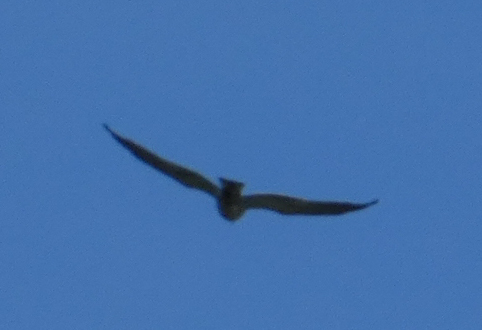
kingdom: Animalia
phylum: Chordata
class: Aves
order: Accipitriformes
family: Accipitridae
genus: Ictinia
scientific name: Ictinia mississippiensis
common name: Mississippi kite
